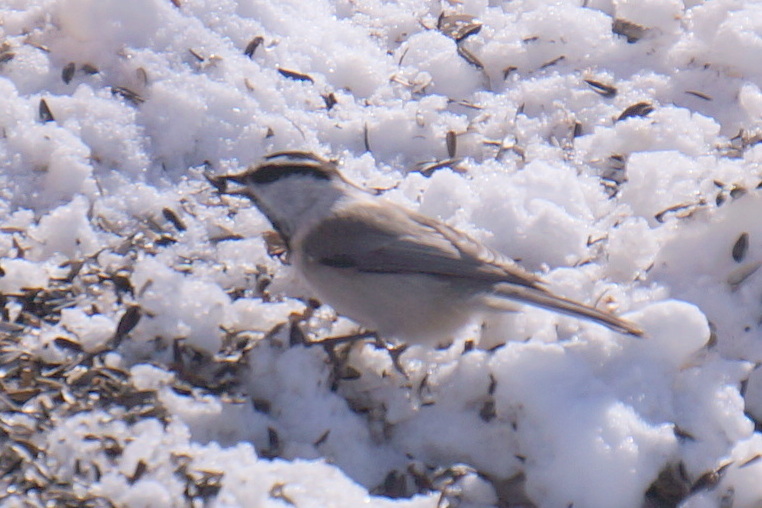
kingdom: Animalia
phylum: Chordata
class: Aves
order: Passeriformes
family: Paridae
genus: Poecile
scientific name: Poecile gambeli
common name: Mountain chickadee
